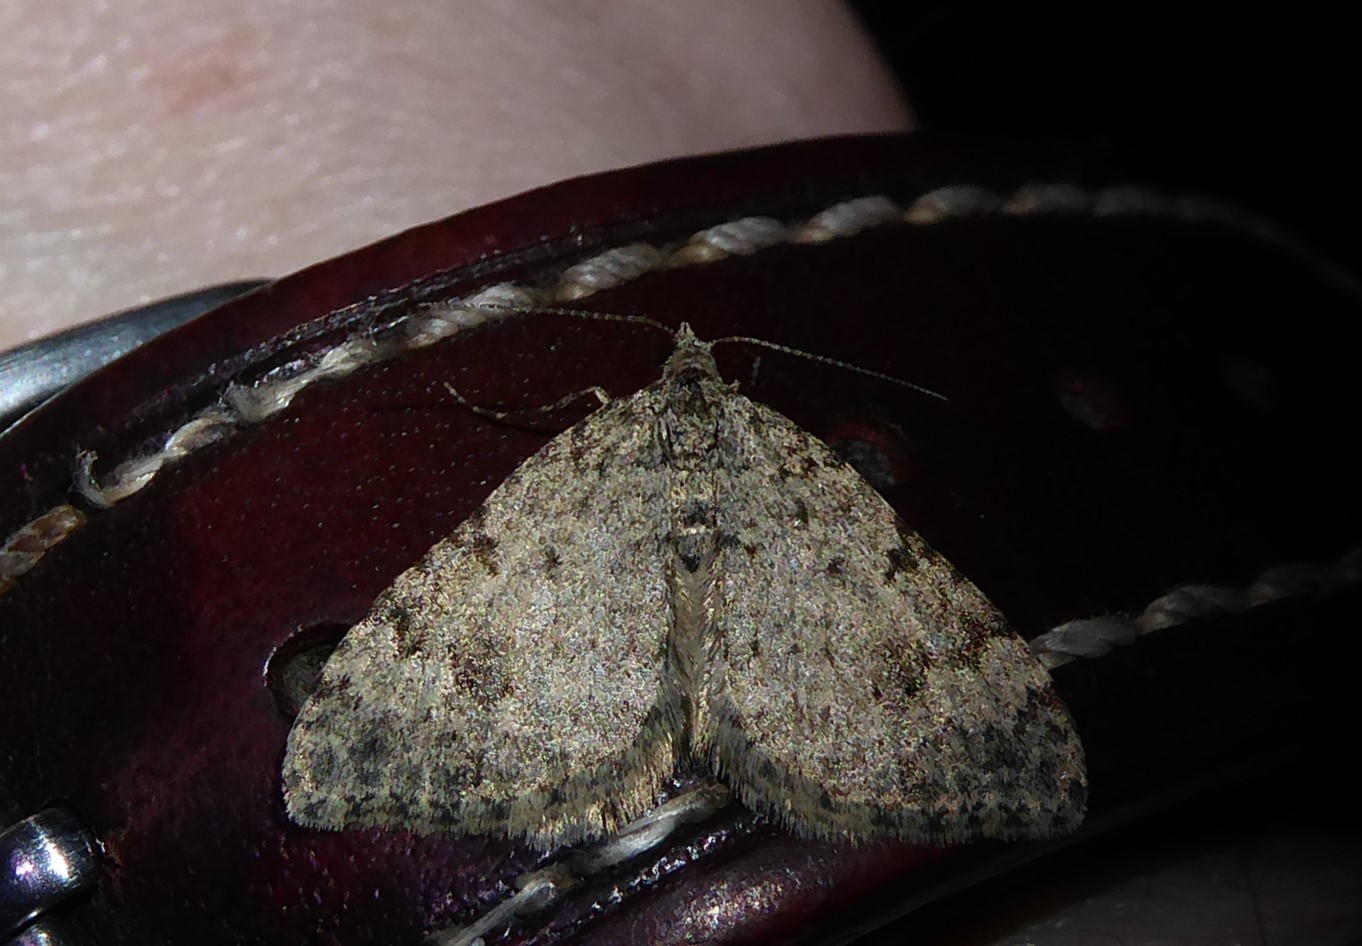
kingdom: Animalia
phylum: Arthropoda
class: Insecta
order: Lepidoptera
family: Geometridae
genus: Helastia
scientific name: Helastia corcularia
